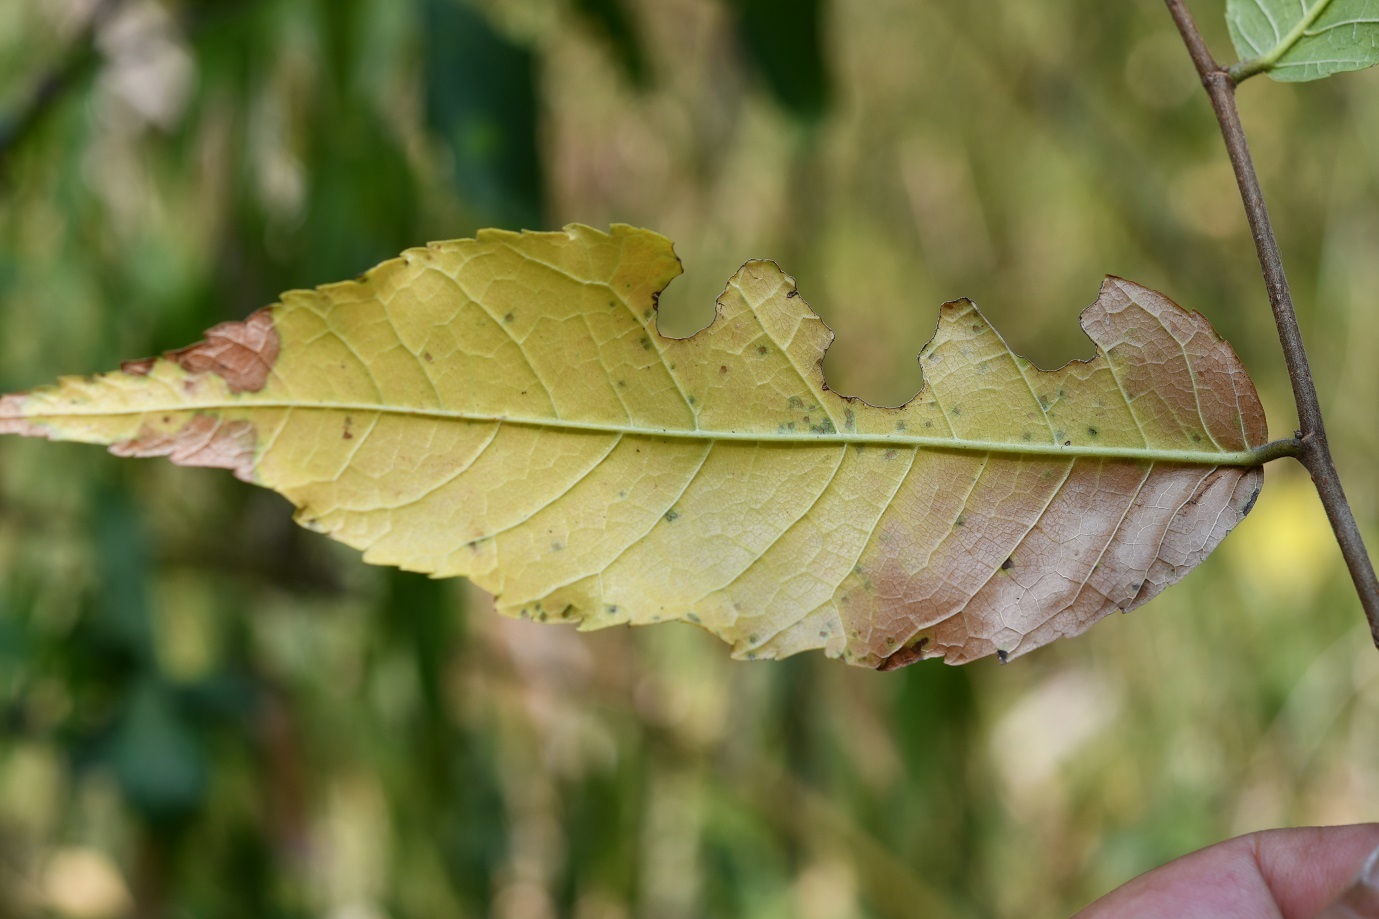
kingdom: Plantae
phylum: Tracheophyta
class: Magnoliopsida
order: Rosales
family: Ulmaceae
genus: Ulmus
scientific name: Ulmus ismaelis
